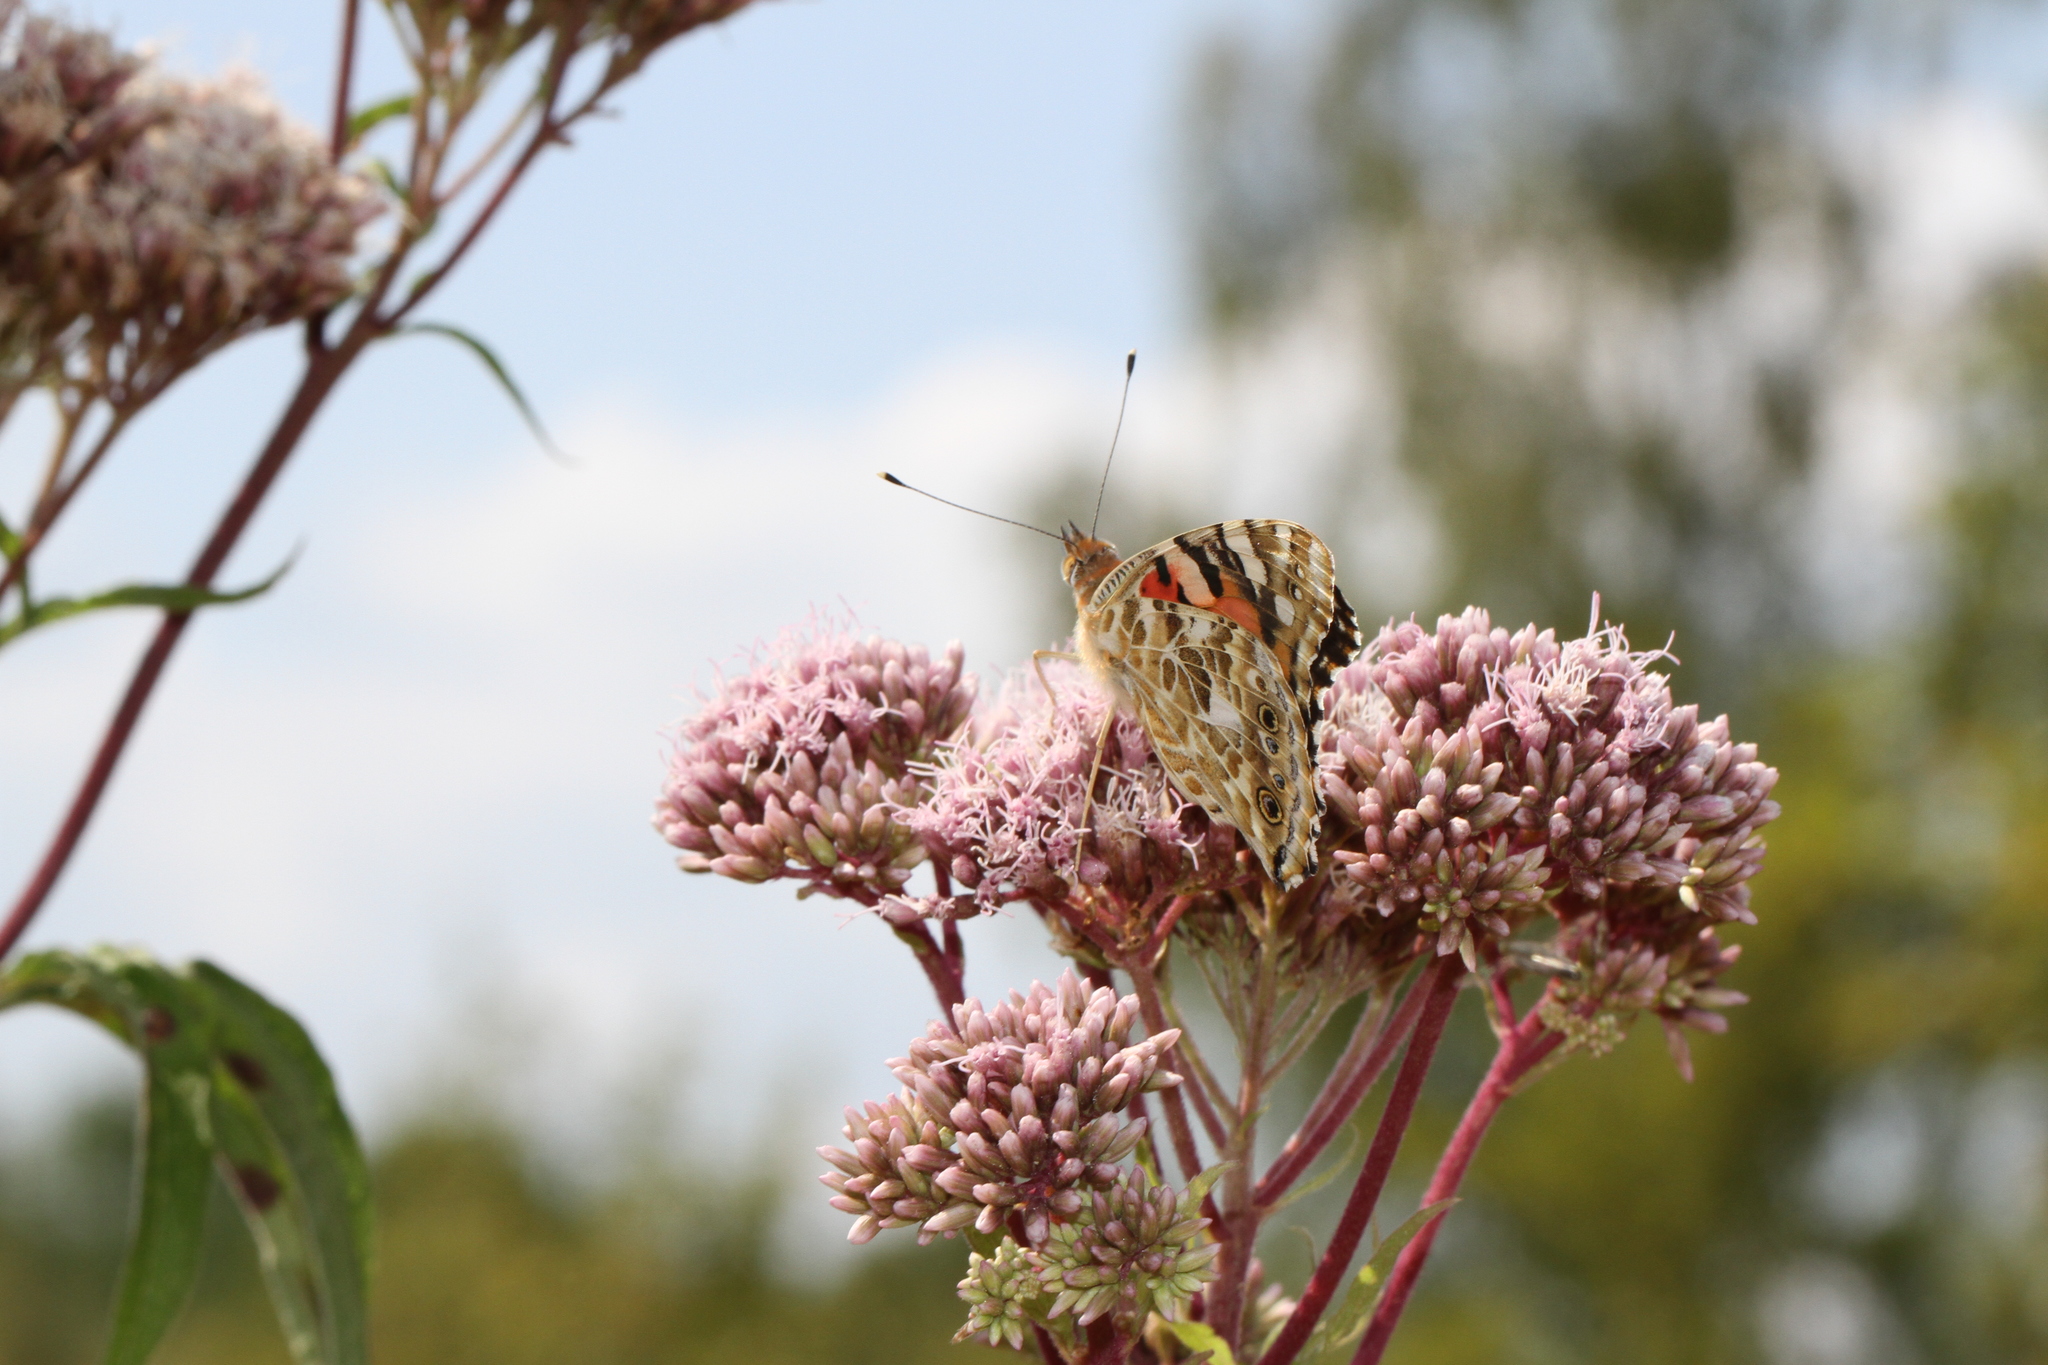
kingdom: Animalia
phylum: Arthropoda
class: Insecta
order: Lepidoptera
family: Nymphalidae
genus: Vanessa
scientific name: Vanessa cardui
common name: Painted lady
